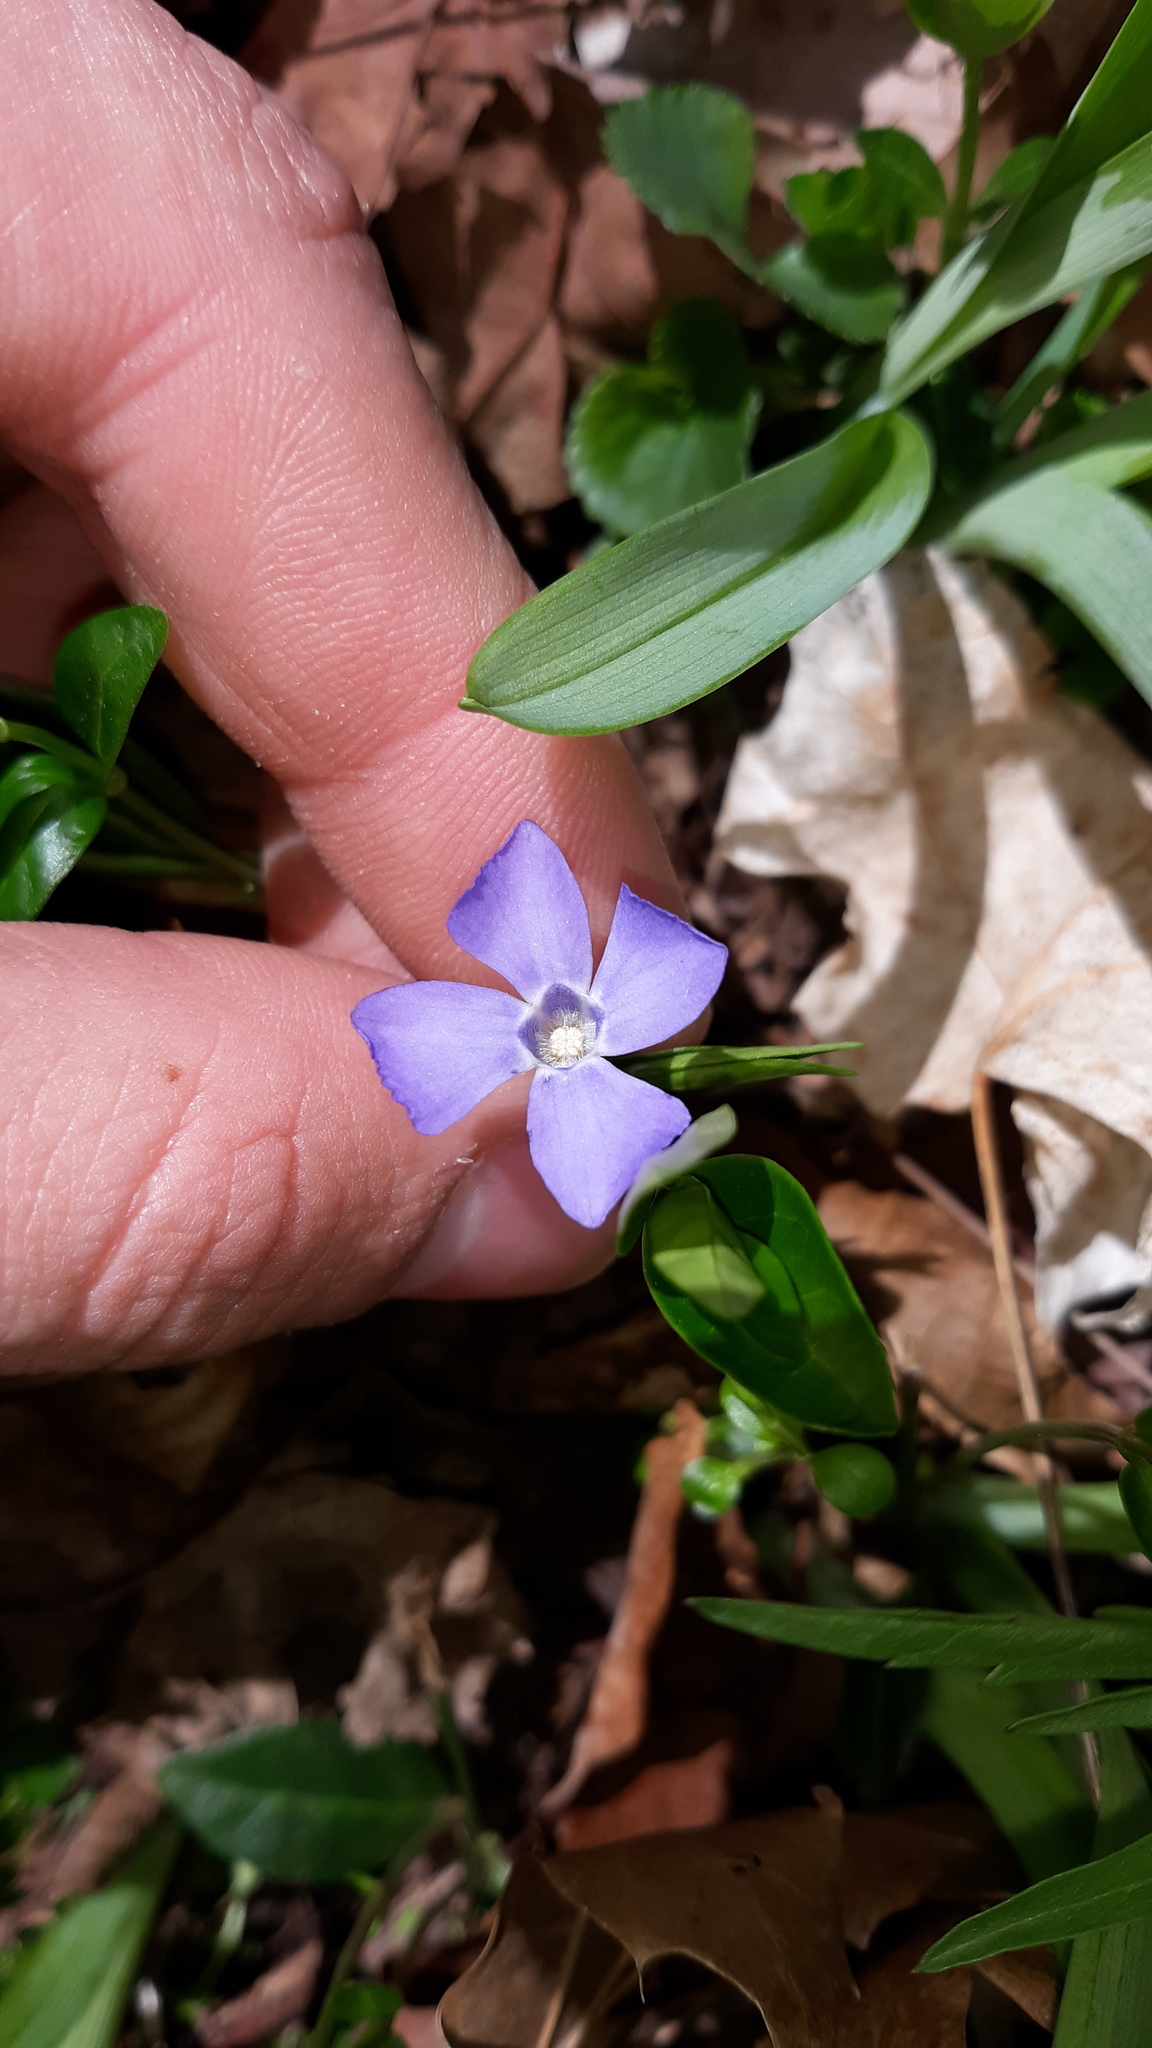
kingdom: Plantae
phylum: Tracheophyta
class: Magnoliopsida
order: Gentianales
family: Apocynaceae
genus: Vinca
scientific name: Vinca minor
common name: Lesser periwinkle
